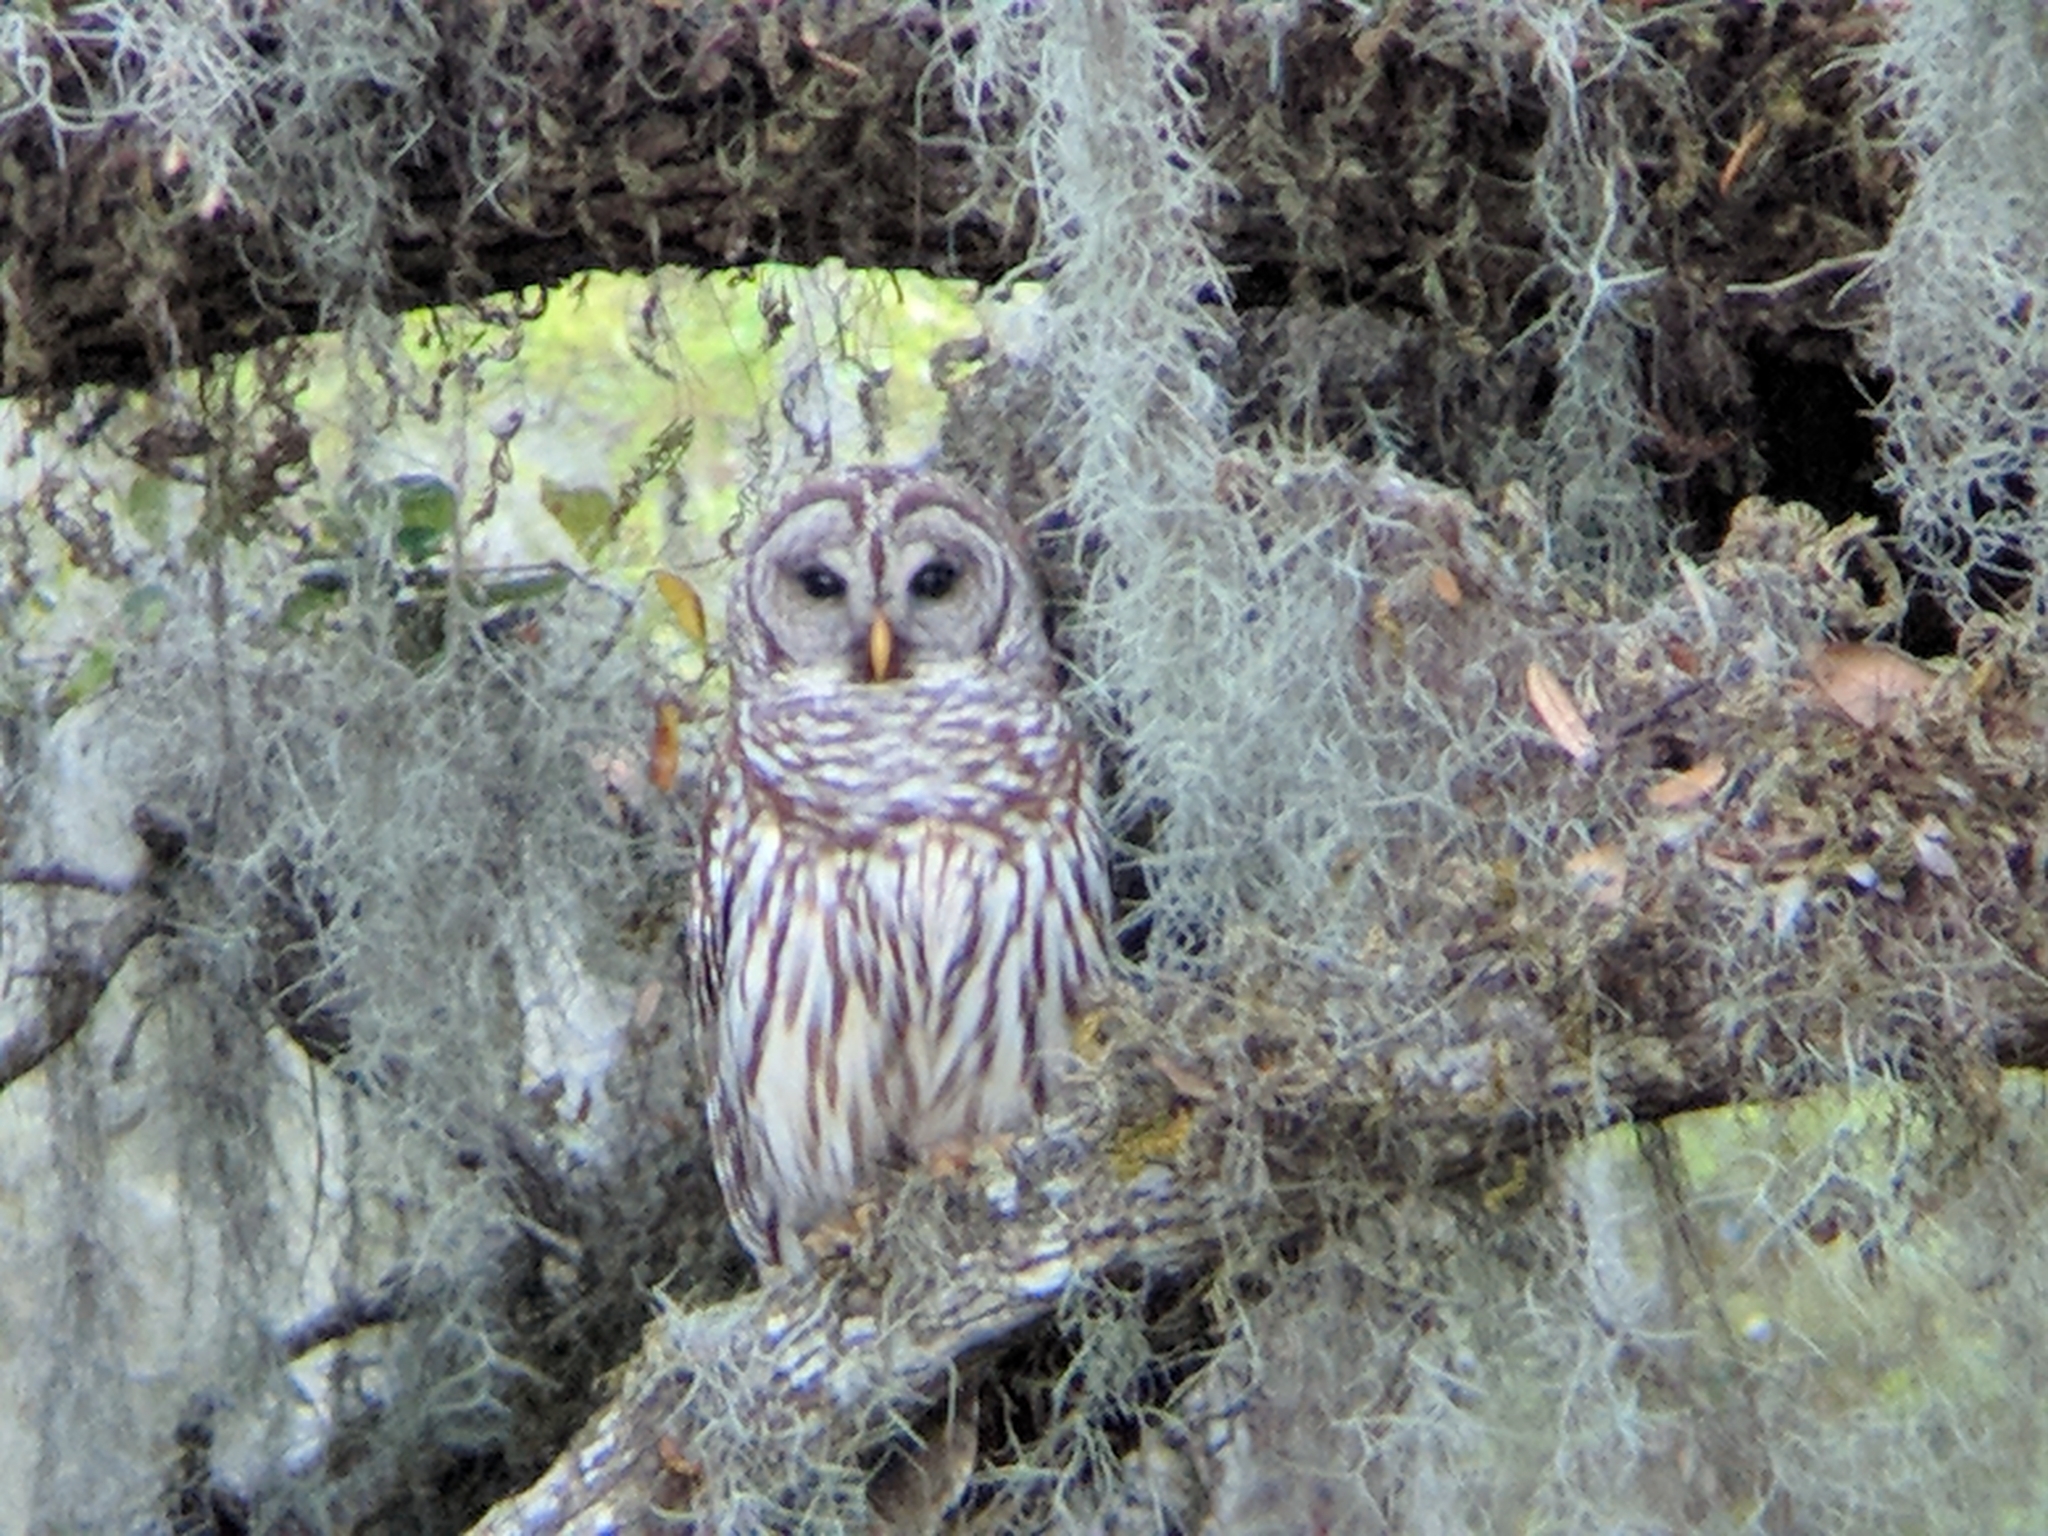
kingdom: Animalia
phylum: Chordata
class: Aves
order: Strigiformes
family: Strigidae
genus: Strix
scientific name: Strix varia
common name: Barred owl
